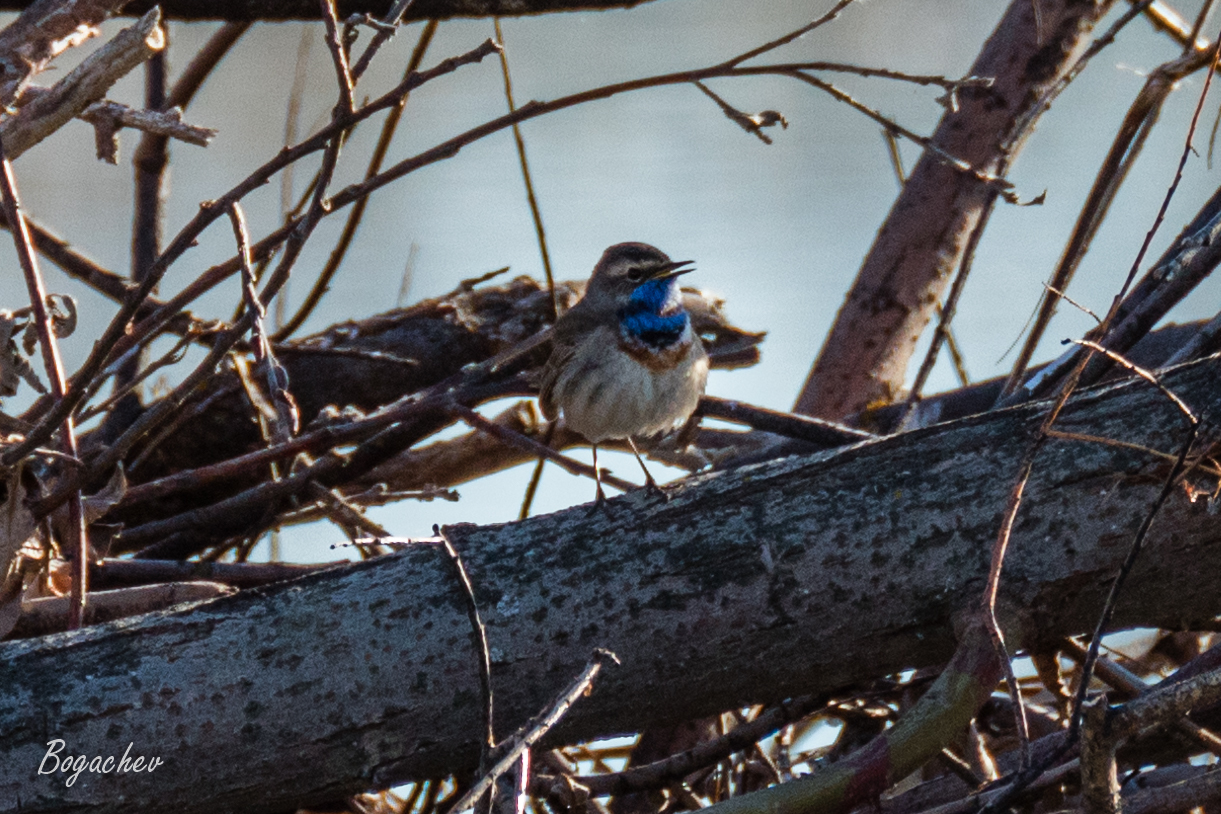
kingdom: Animalia
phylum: Chordata
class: Aves
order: Passeriformes
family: Muscicapidae
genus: Luscinia
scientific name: Luscinia svecica
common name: Bluethroat
